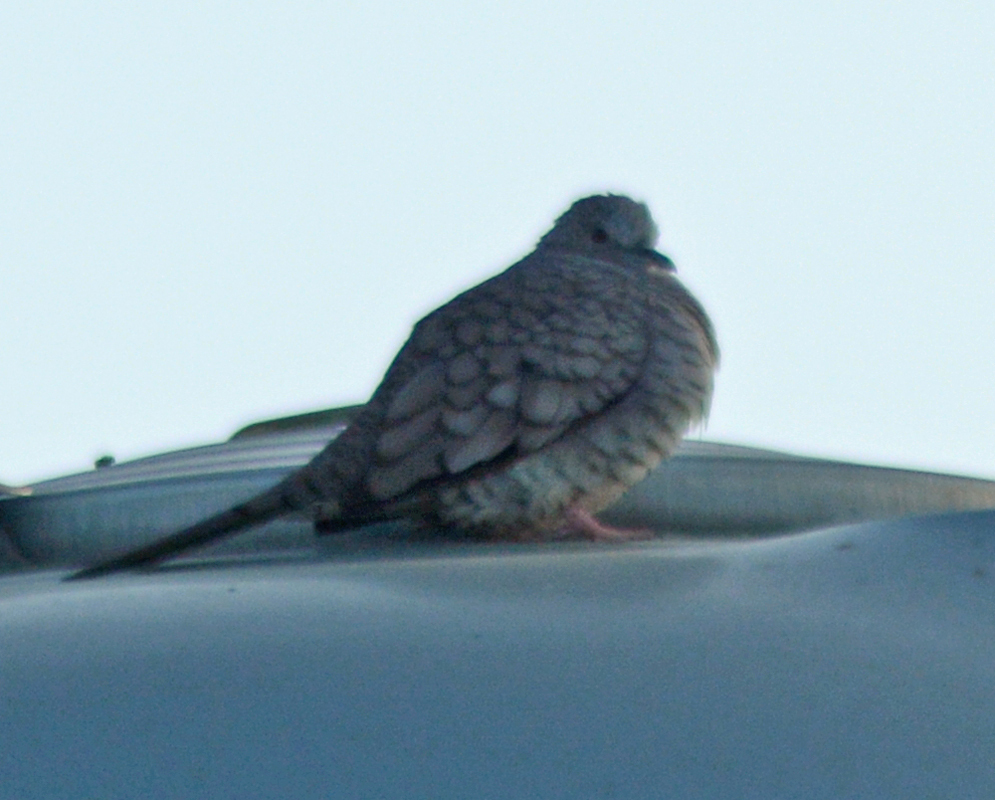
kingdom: Animalia
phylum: Chordata
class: Aves
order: Columbiformes
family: Columbidae
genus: Columbina
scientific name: Columbina inca
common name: Inca dove
